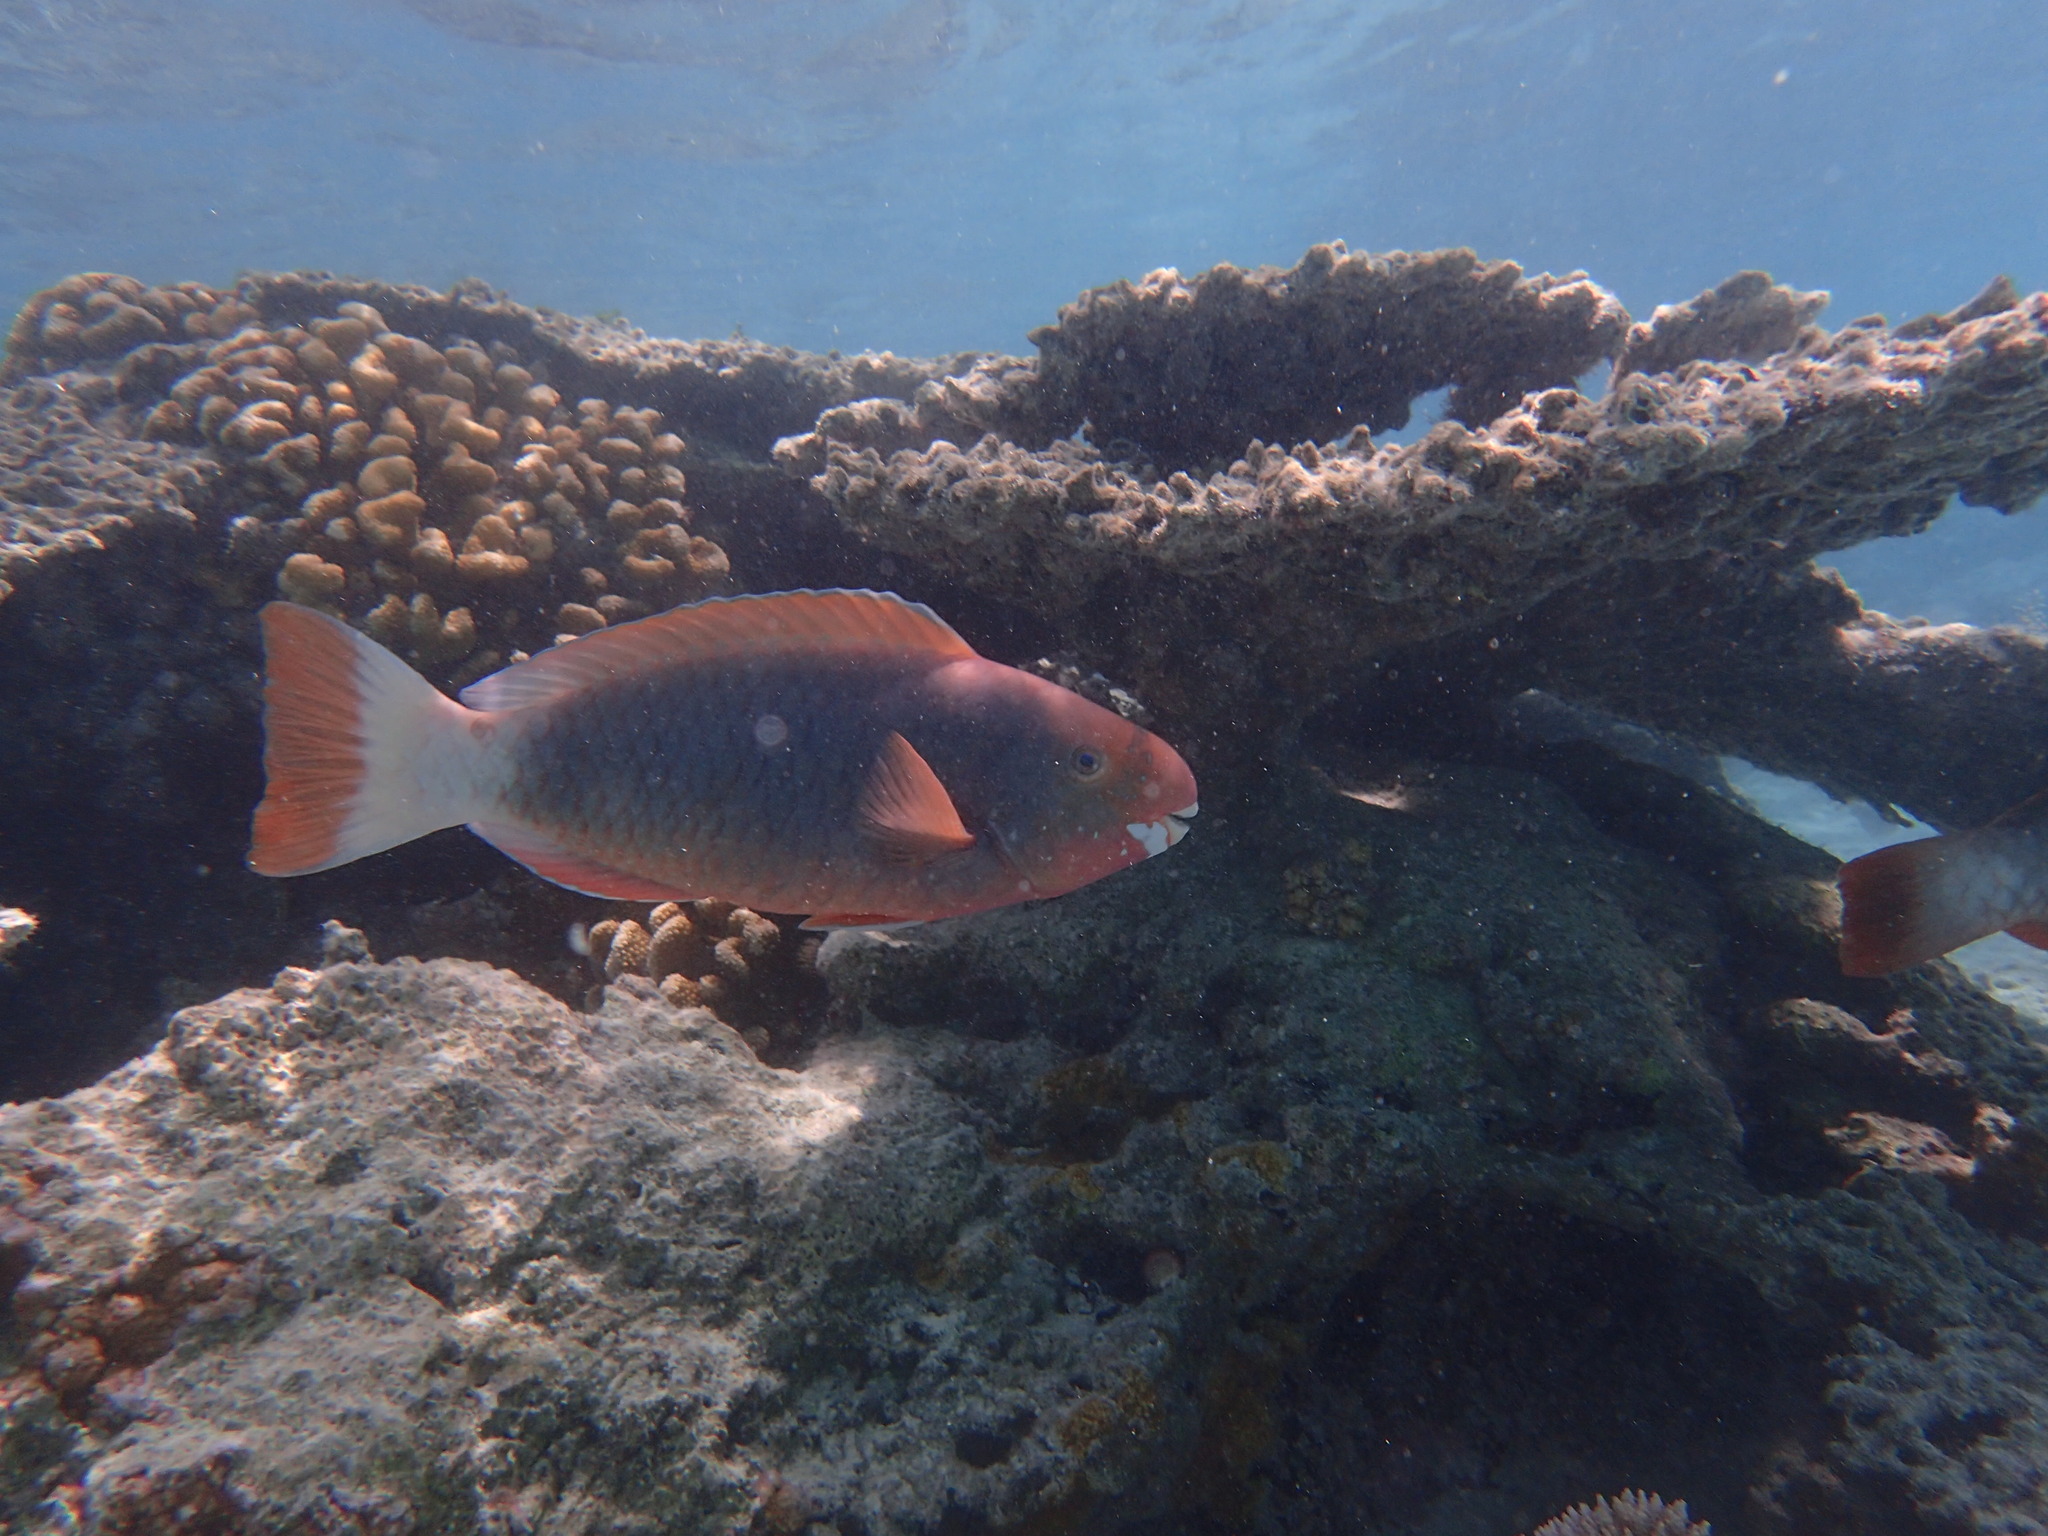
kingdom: Animalia
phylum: Chordata
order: Perciformes
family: Scaridae
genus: Chlorurus
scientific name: Chlorurus perspicillatus
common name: Spectacled parrotfish
